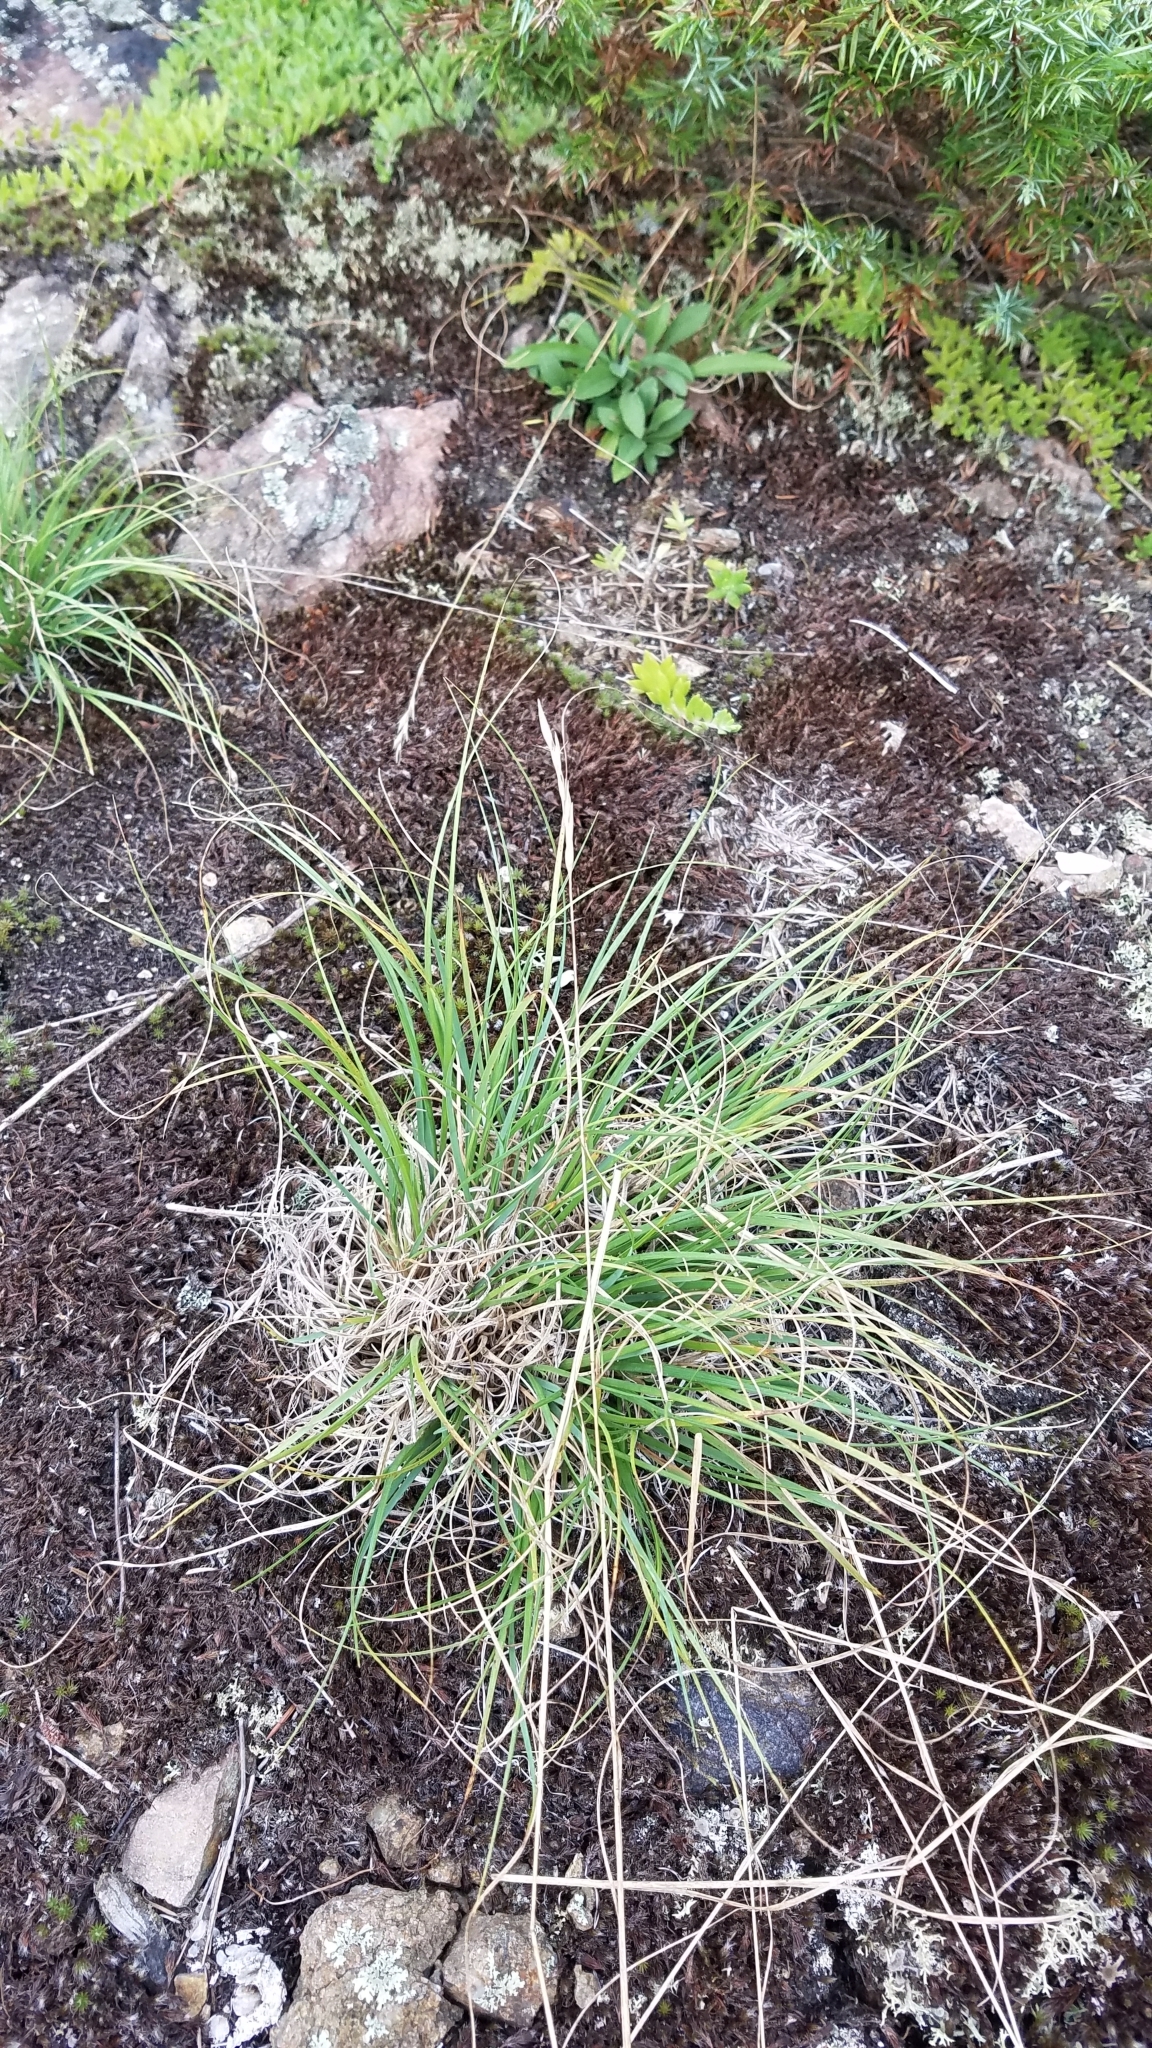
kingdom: Plantae
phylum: Tracheophyta
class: Liliopsida
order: Poales
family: Poaceae
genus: Danthonia
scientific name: Danthonia spicata
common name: Common wild oatgrass
